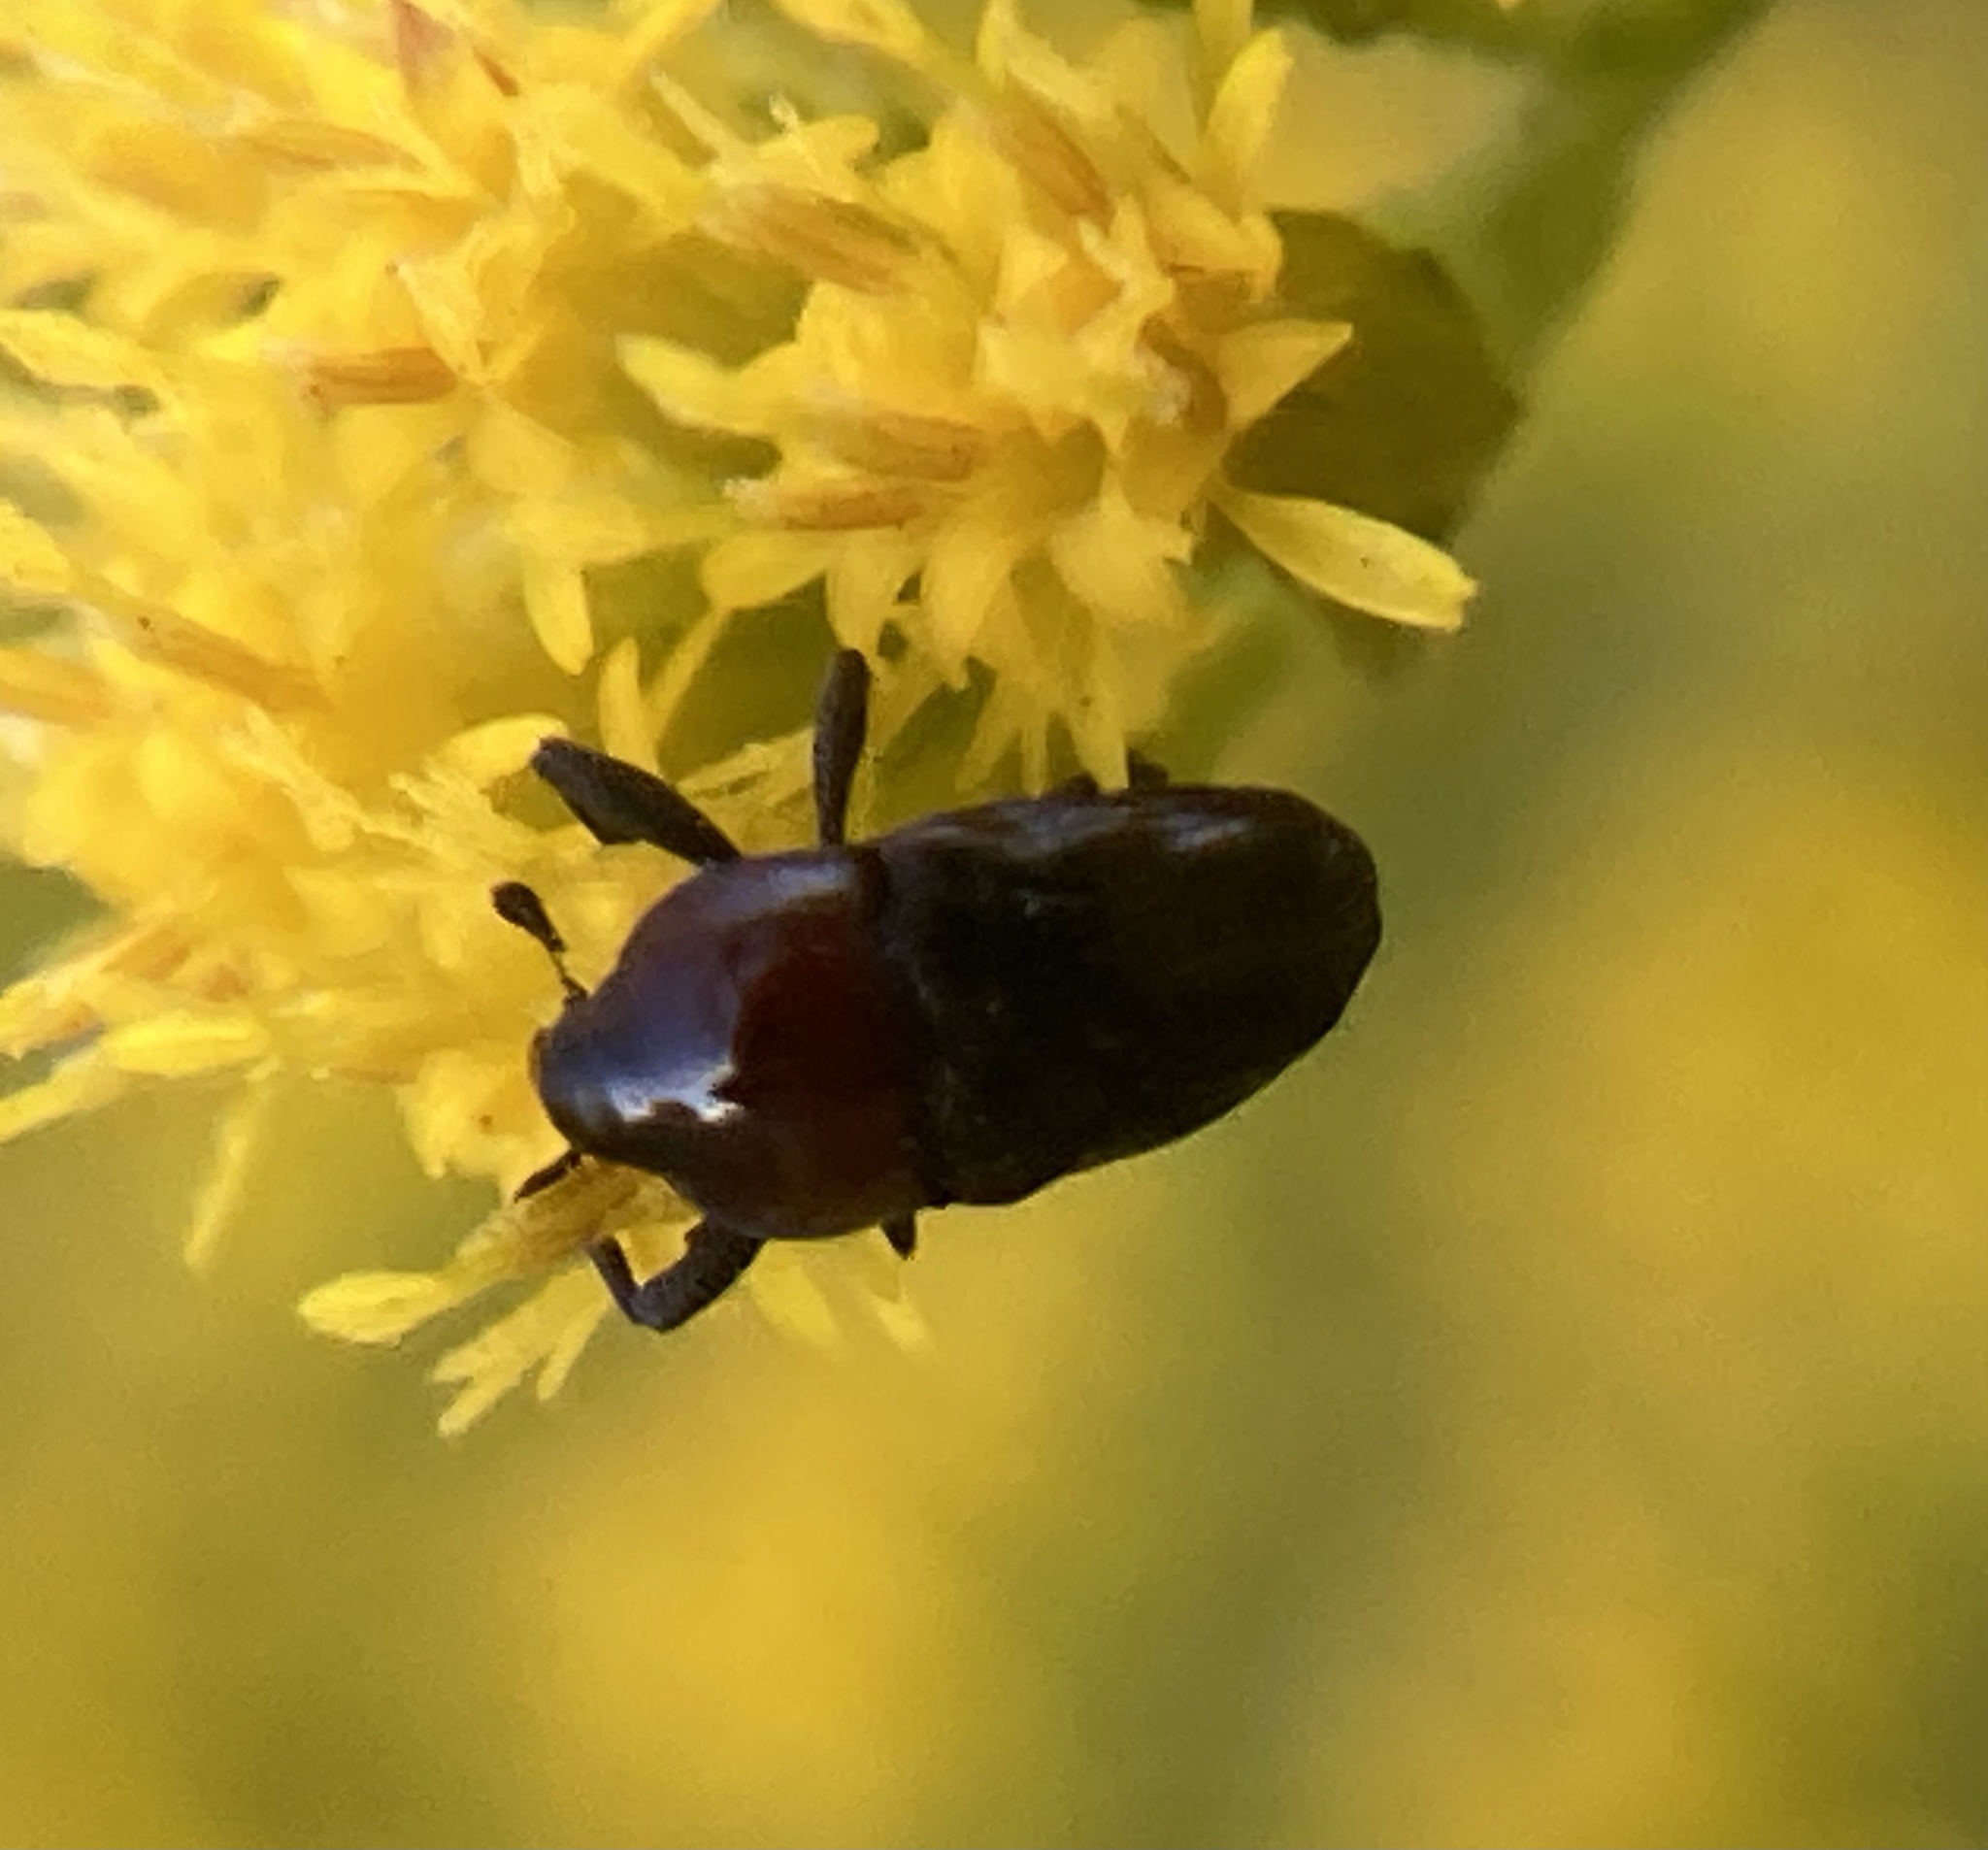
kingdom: Animalia
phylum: Arthropoda
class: Insecta
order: Coleoptera
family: Curculionidae
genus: Madarellus
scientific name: Madarellus undulatus
